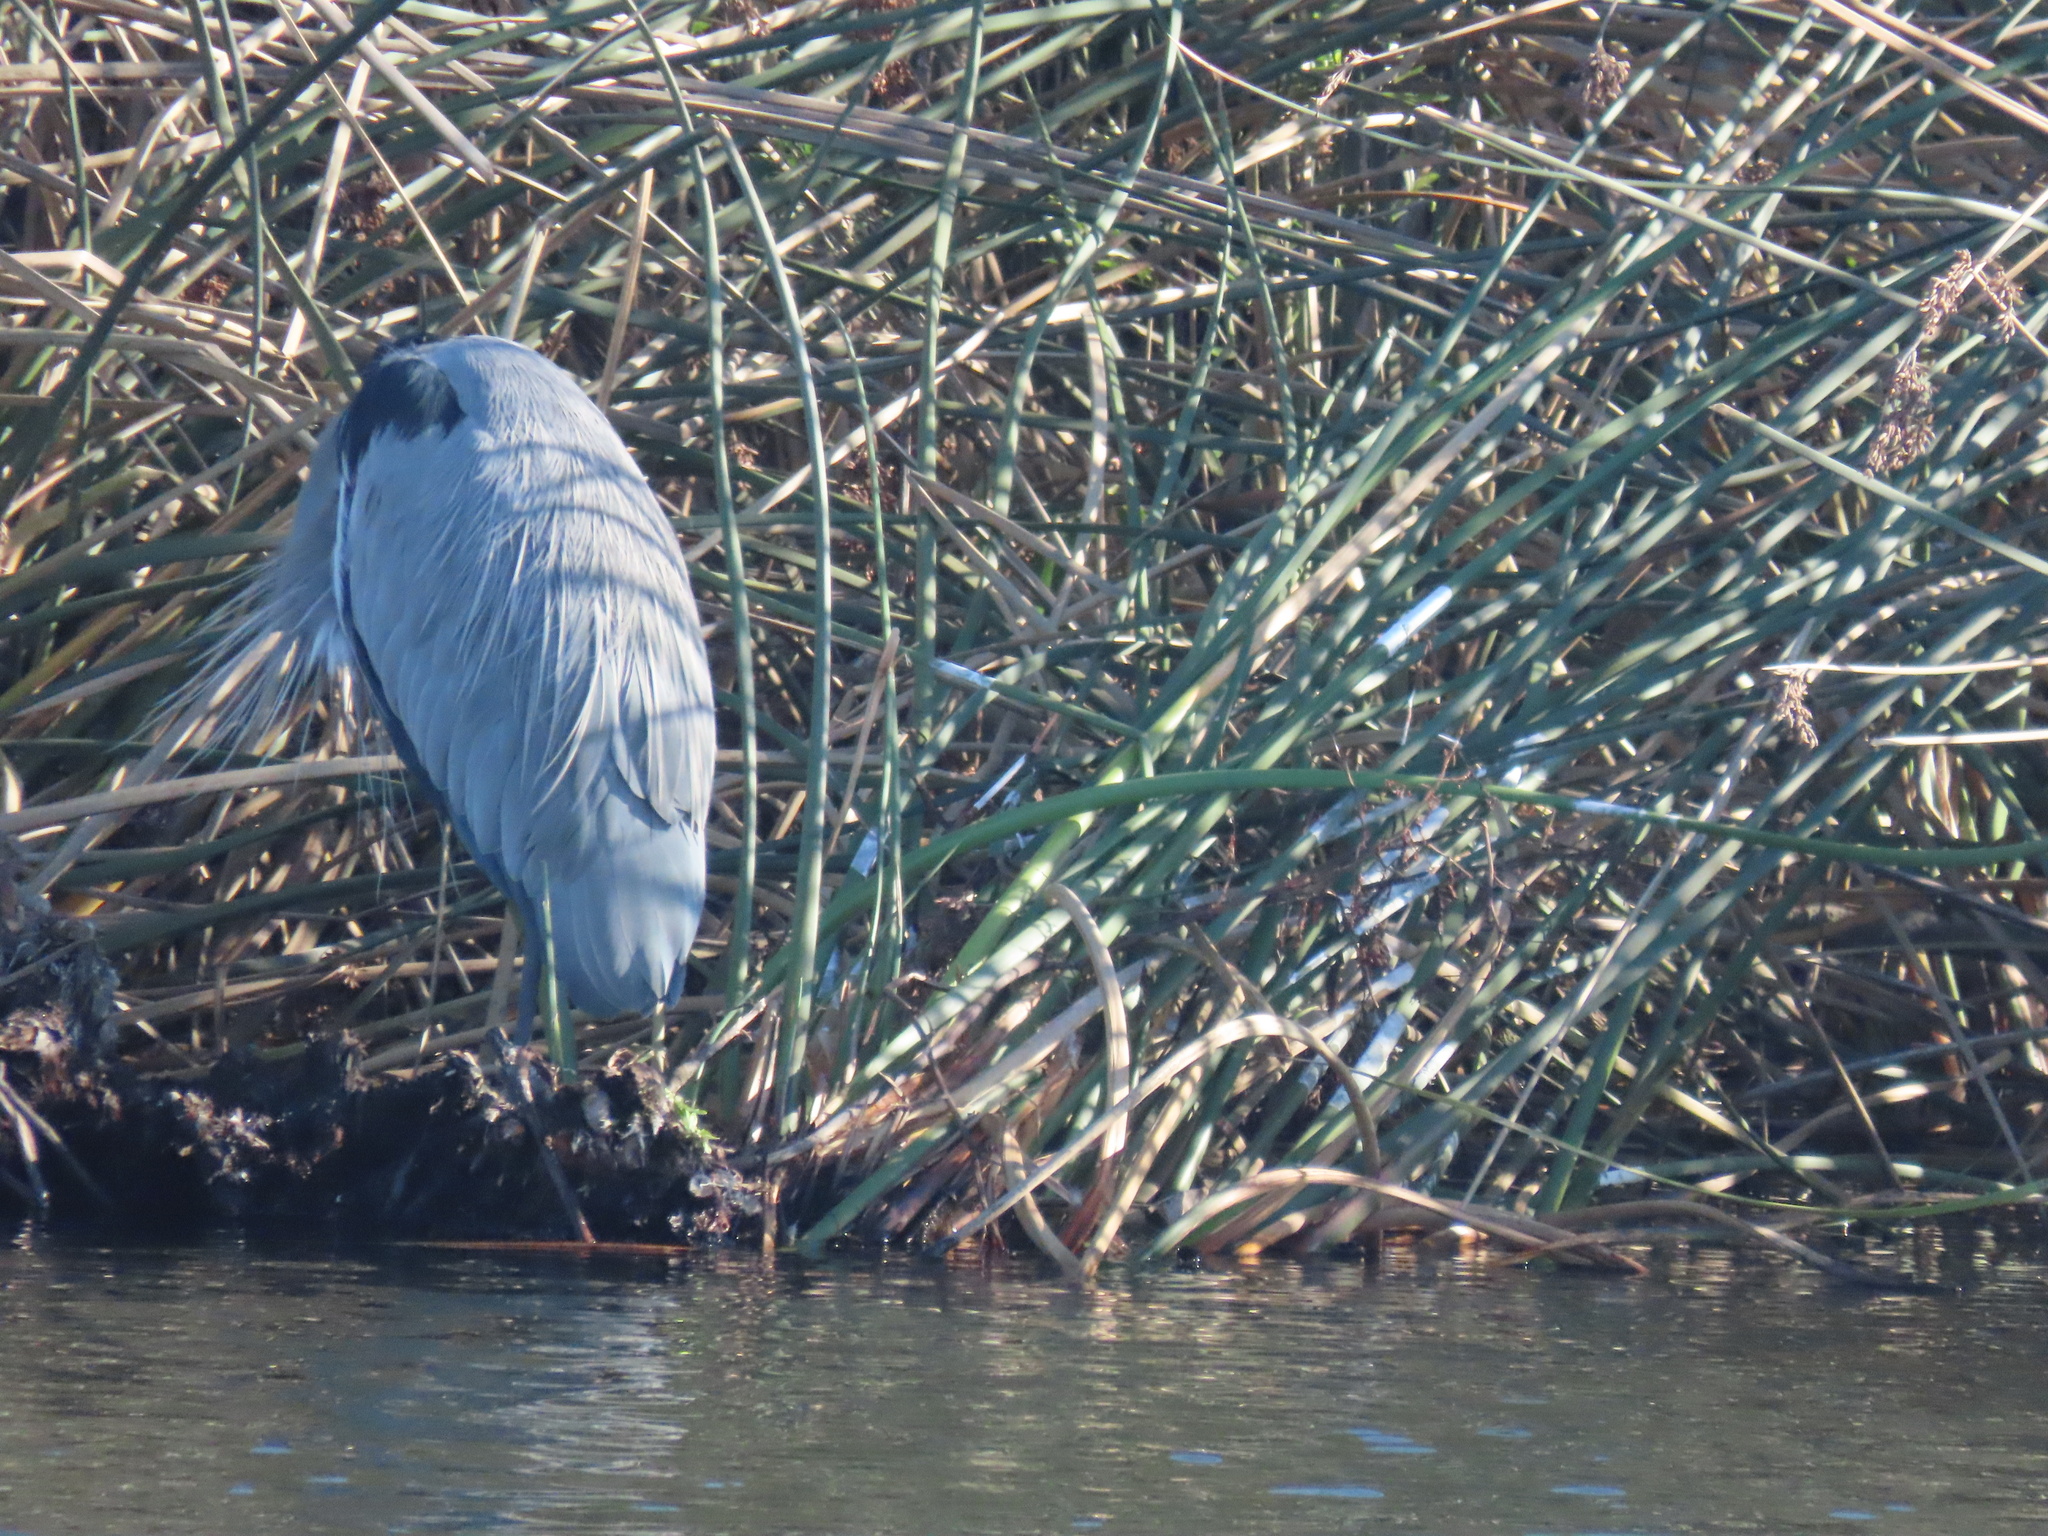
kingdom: Animalia
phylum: Chordata
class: Aves
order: Pelecaniformes
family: Ardeidae
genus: Ardea
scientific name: Ardea herodias
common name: Great blue heron
